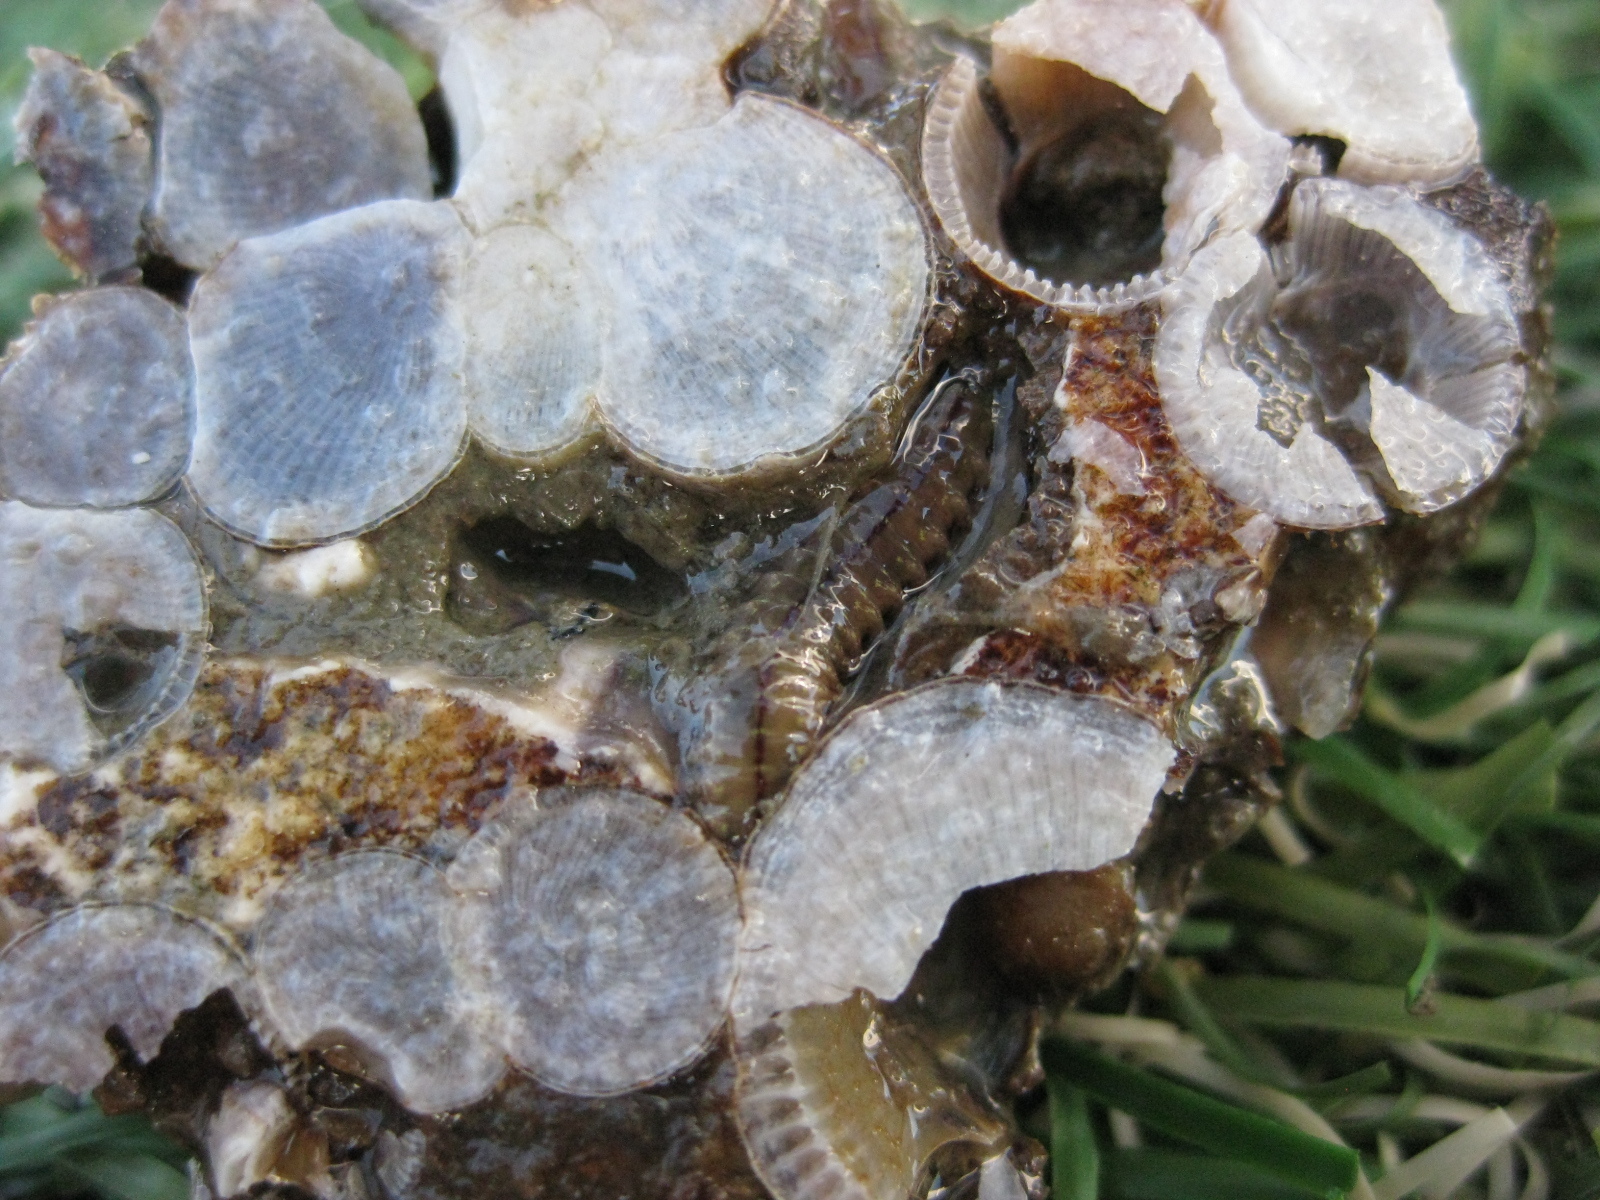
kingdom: Animalia
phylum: Arthropoda
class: Maxillopoda
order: Sessilia
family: Balanidae
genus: Fistulobalanus
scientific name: Fistulobalanus kondakovi
